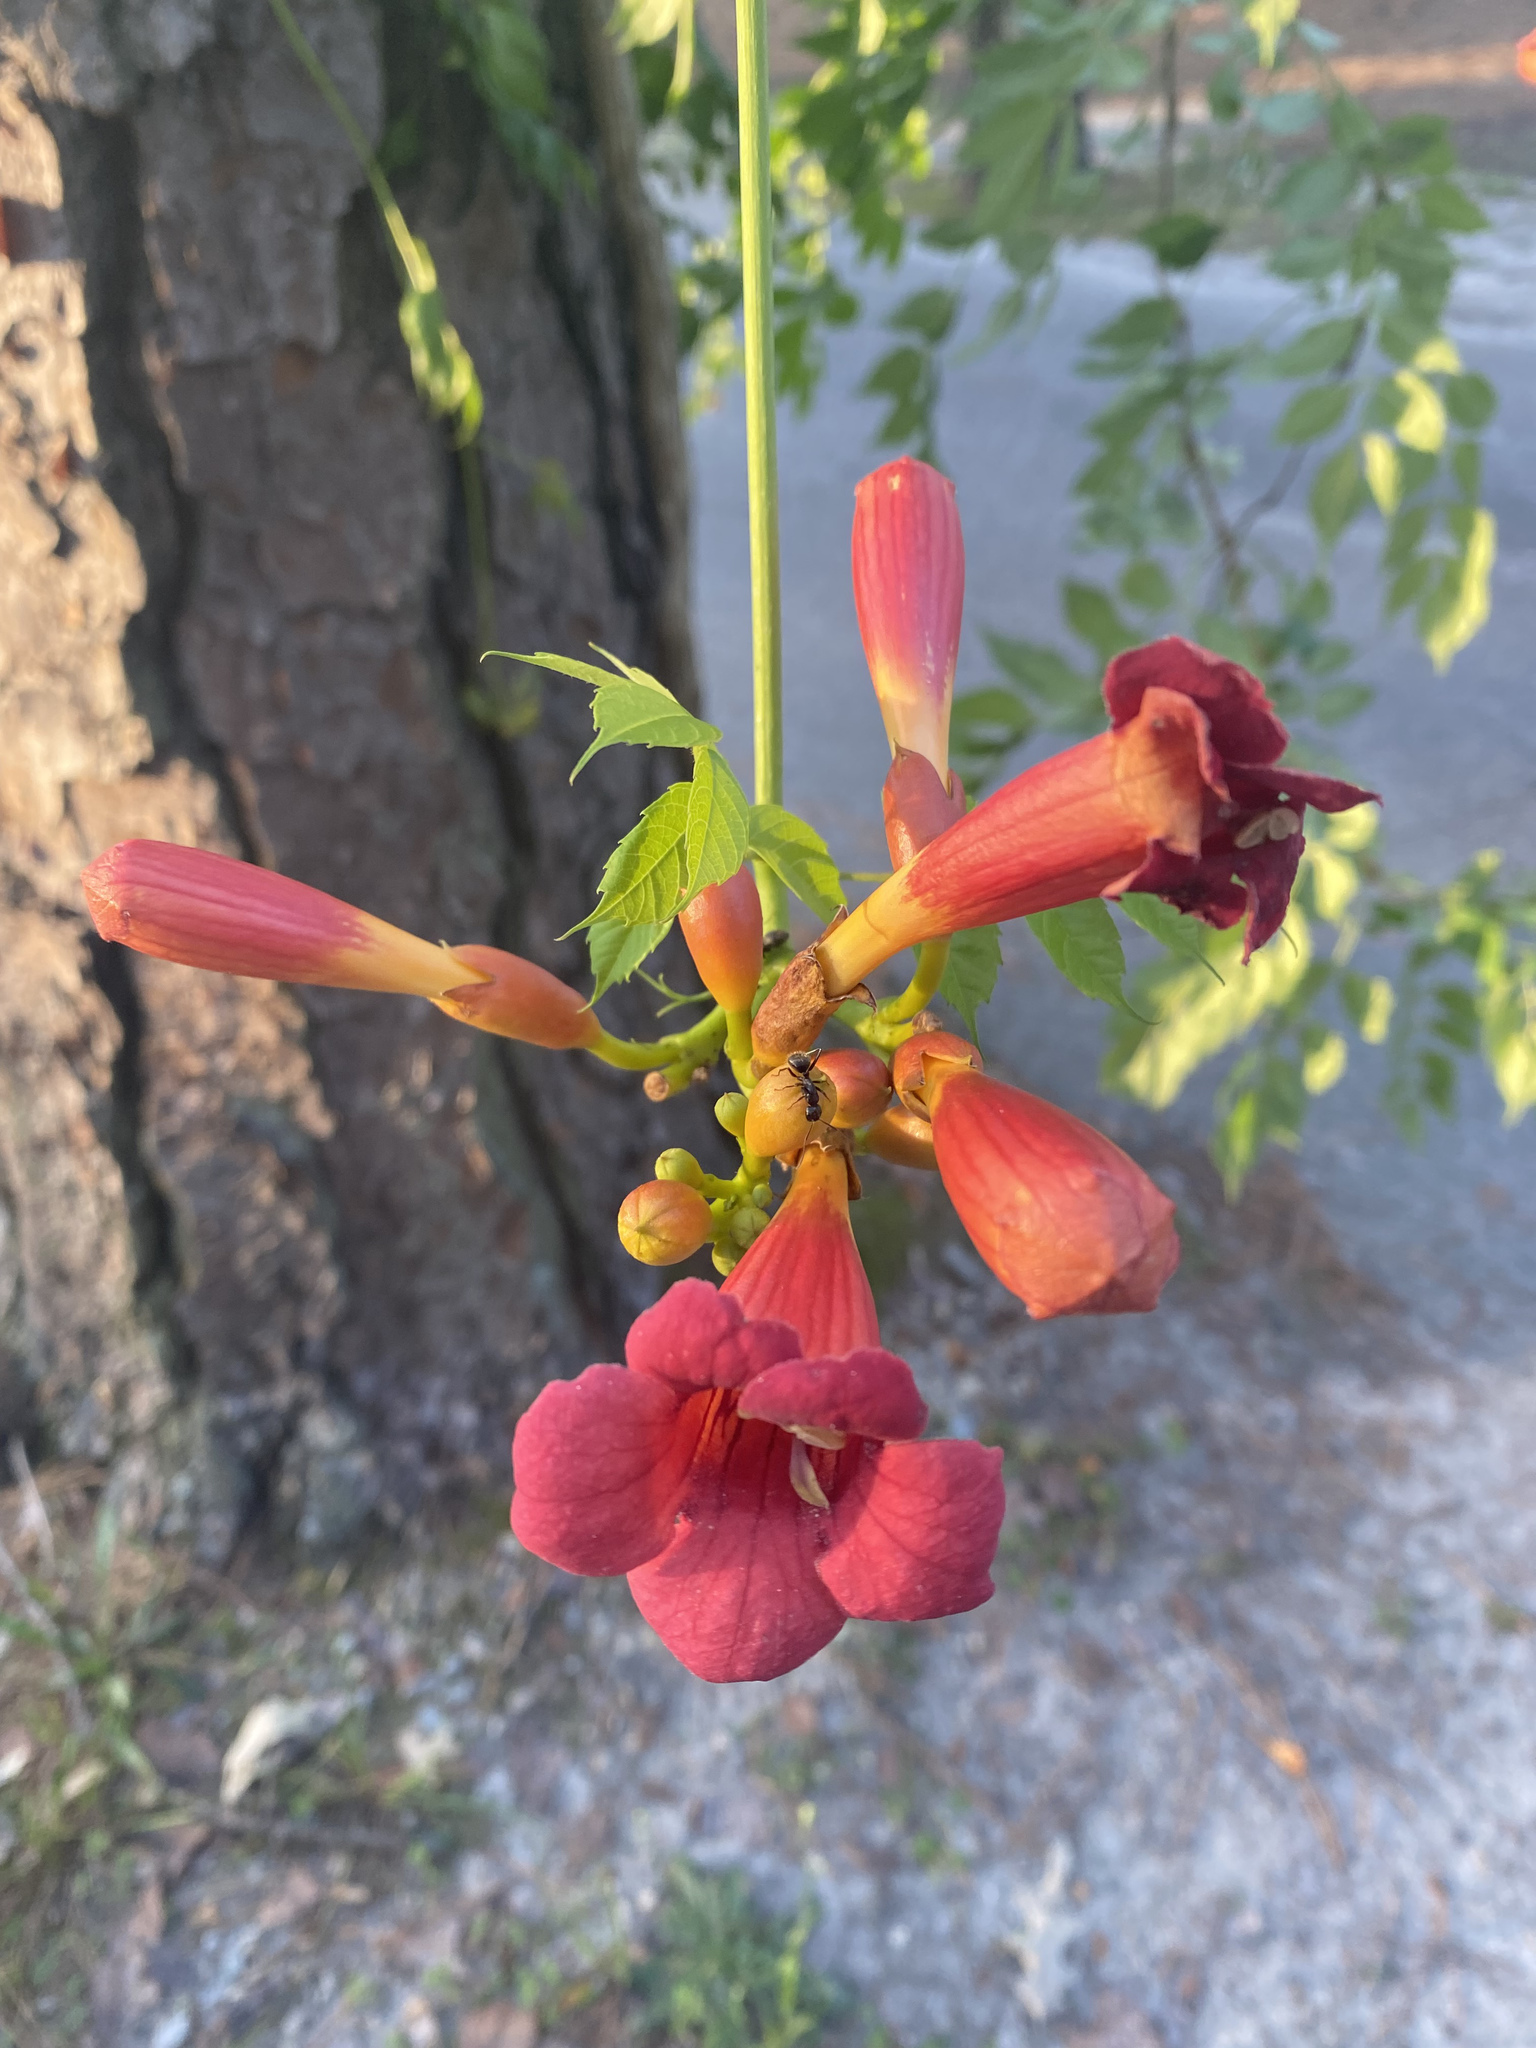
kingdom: Plantae
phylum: Tracheophyta
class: Magnoliopsida
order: Lamiales
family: Bignoniaceae
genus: Campsis
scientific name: Campsis radicans
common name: Trumpet-creeper
